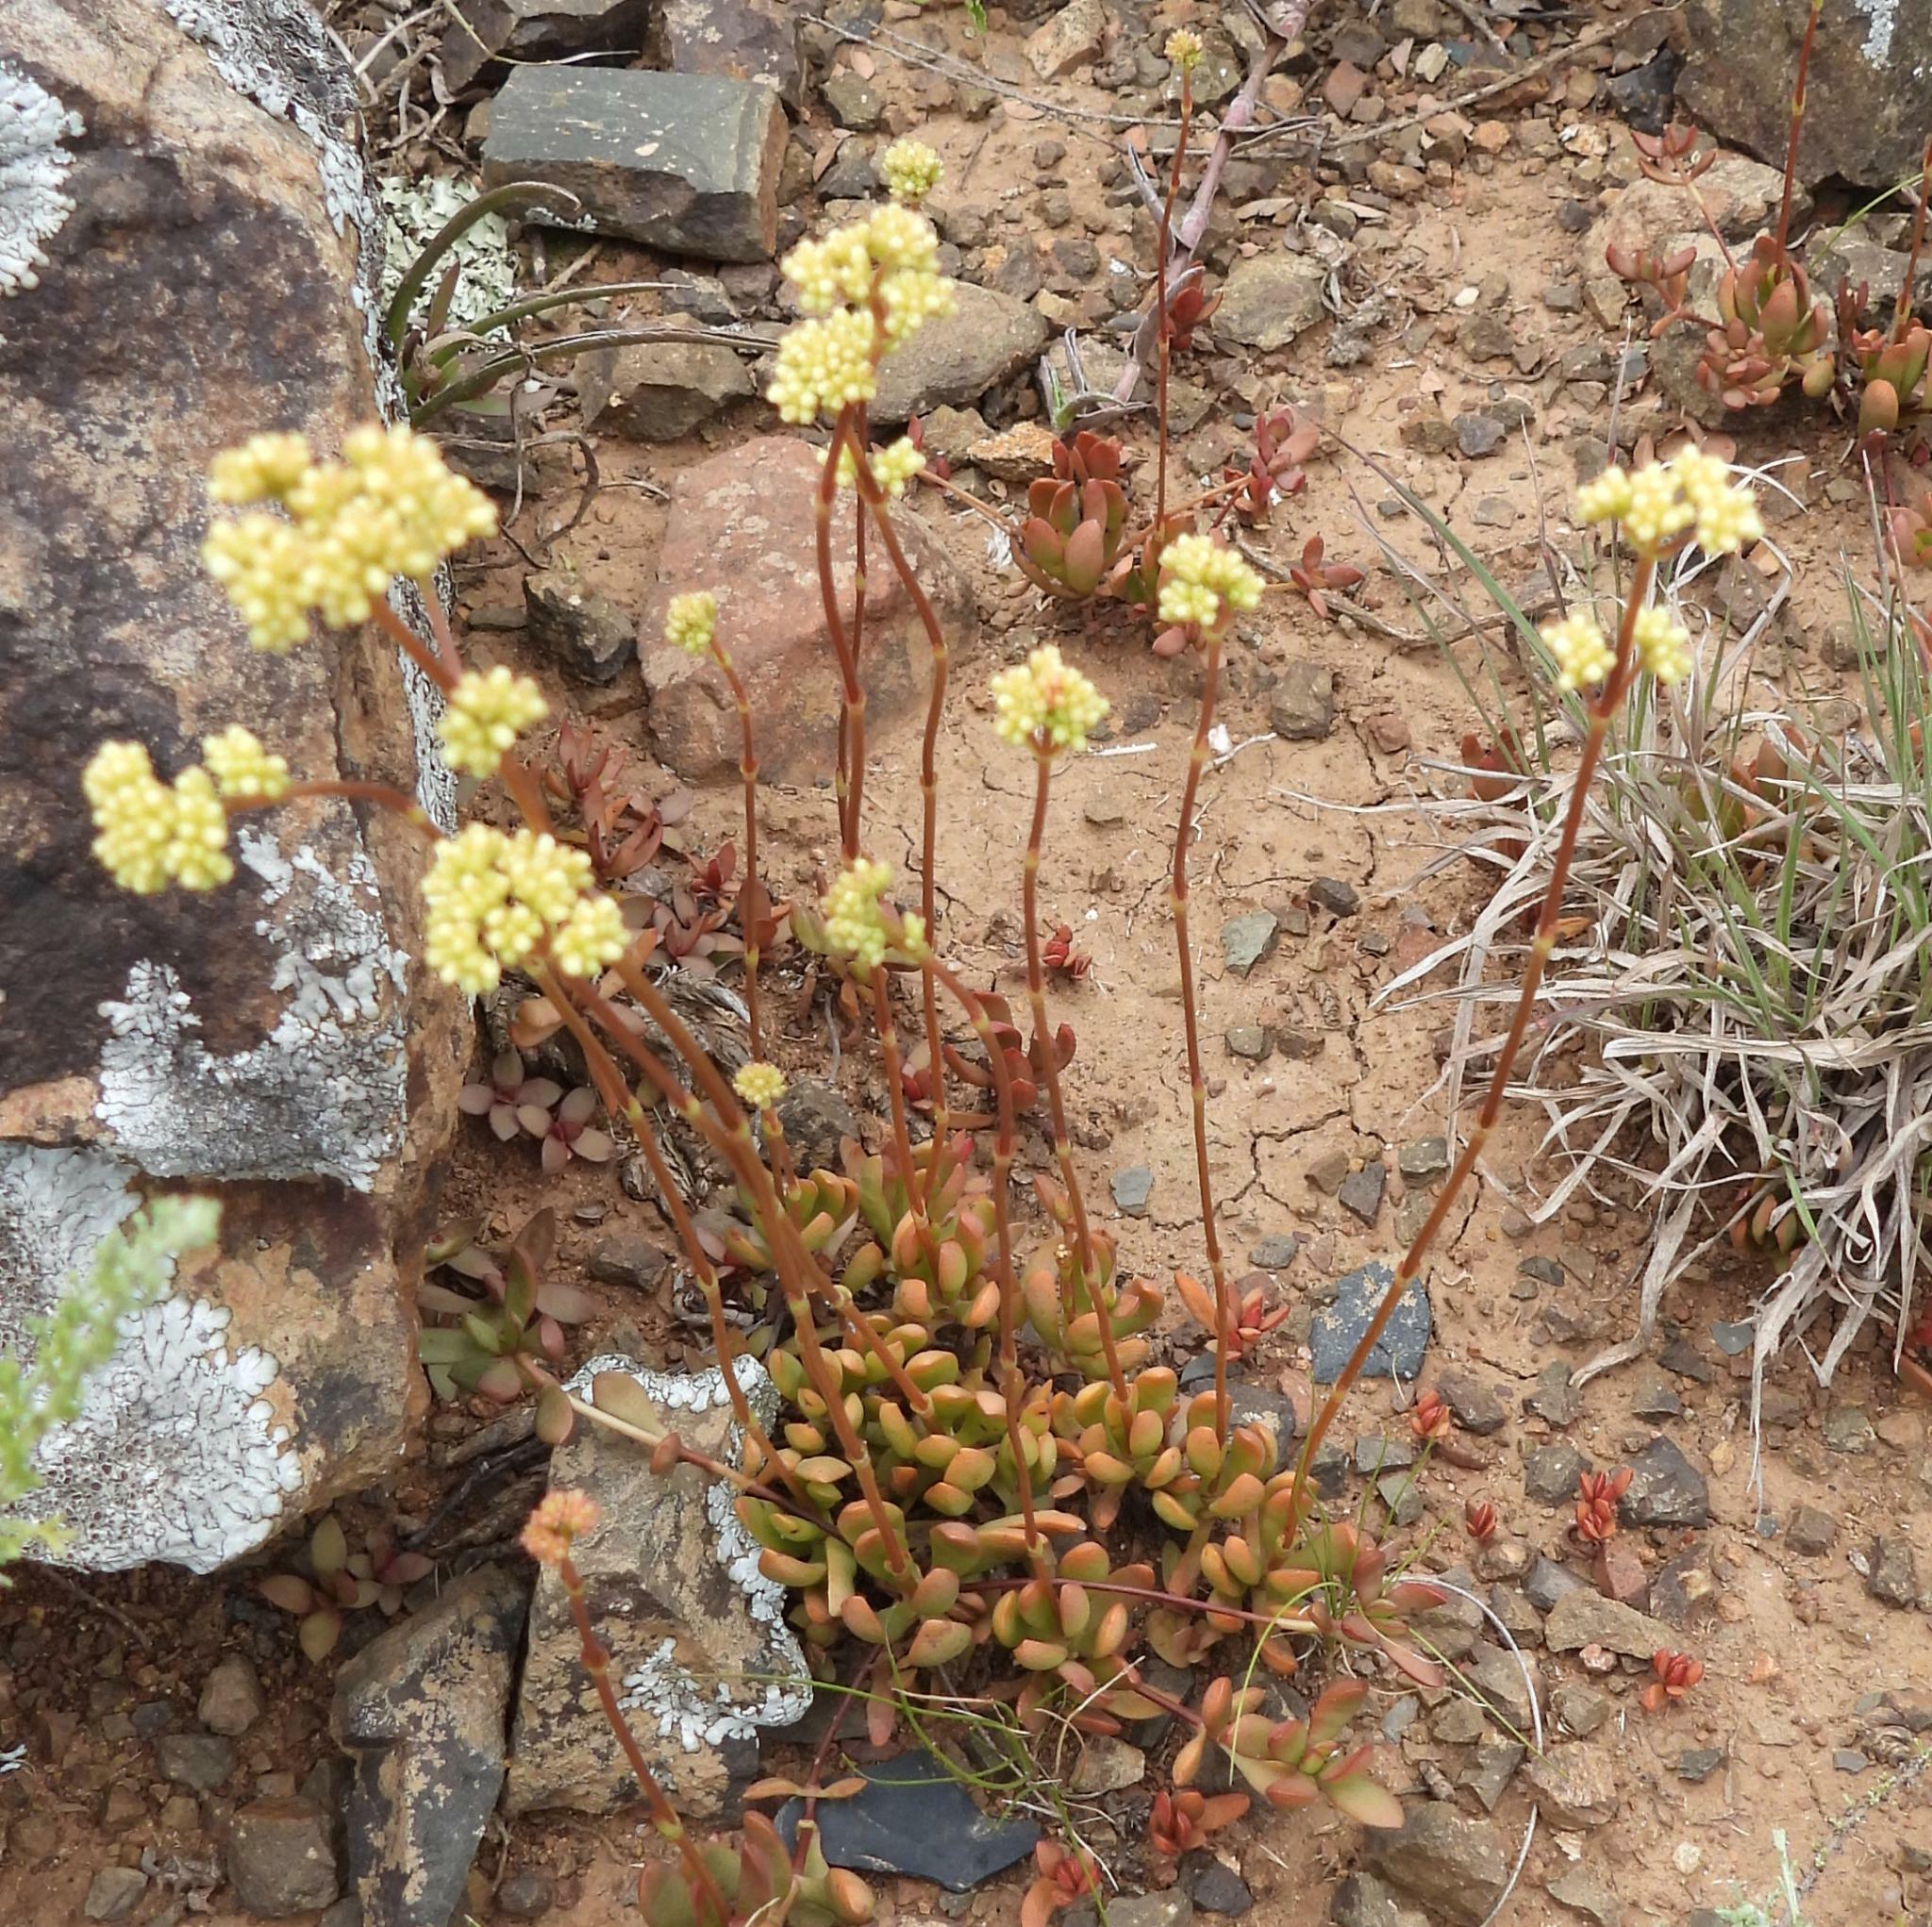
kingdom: Plantae
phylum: Tracheophyta
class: Magnoliopsida
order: Saxifragales
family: Crassulaceae
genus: Crassula
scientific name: Crassula pubescens
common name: Jersey pigmyweed
